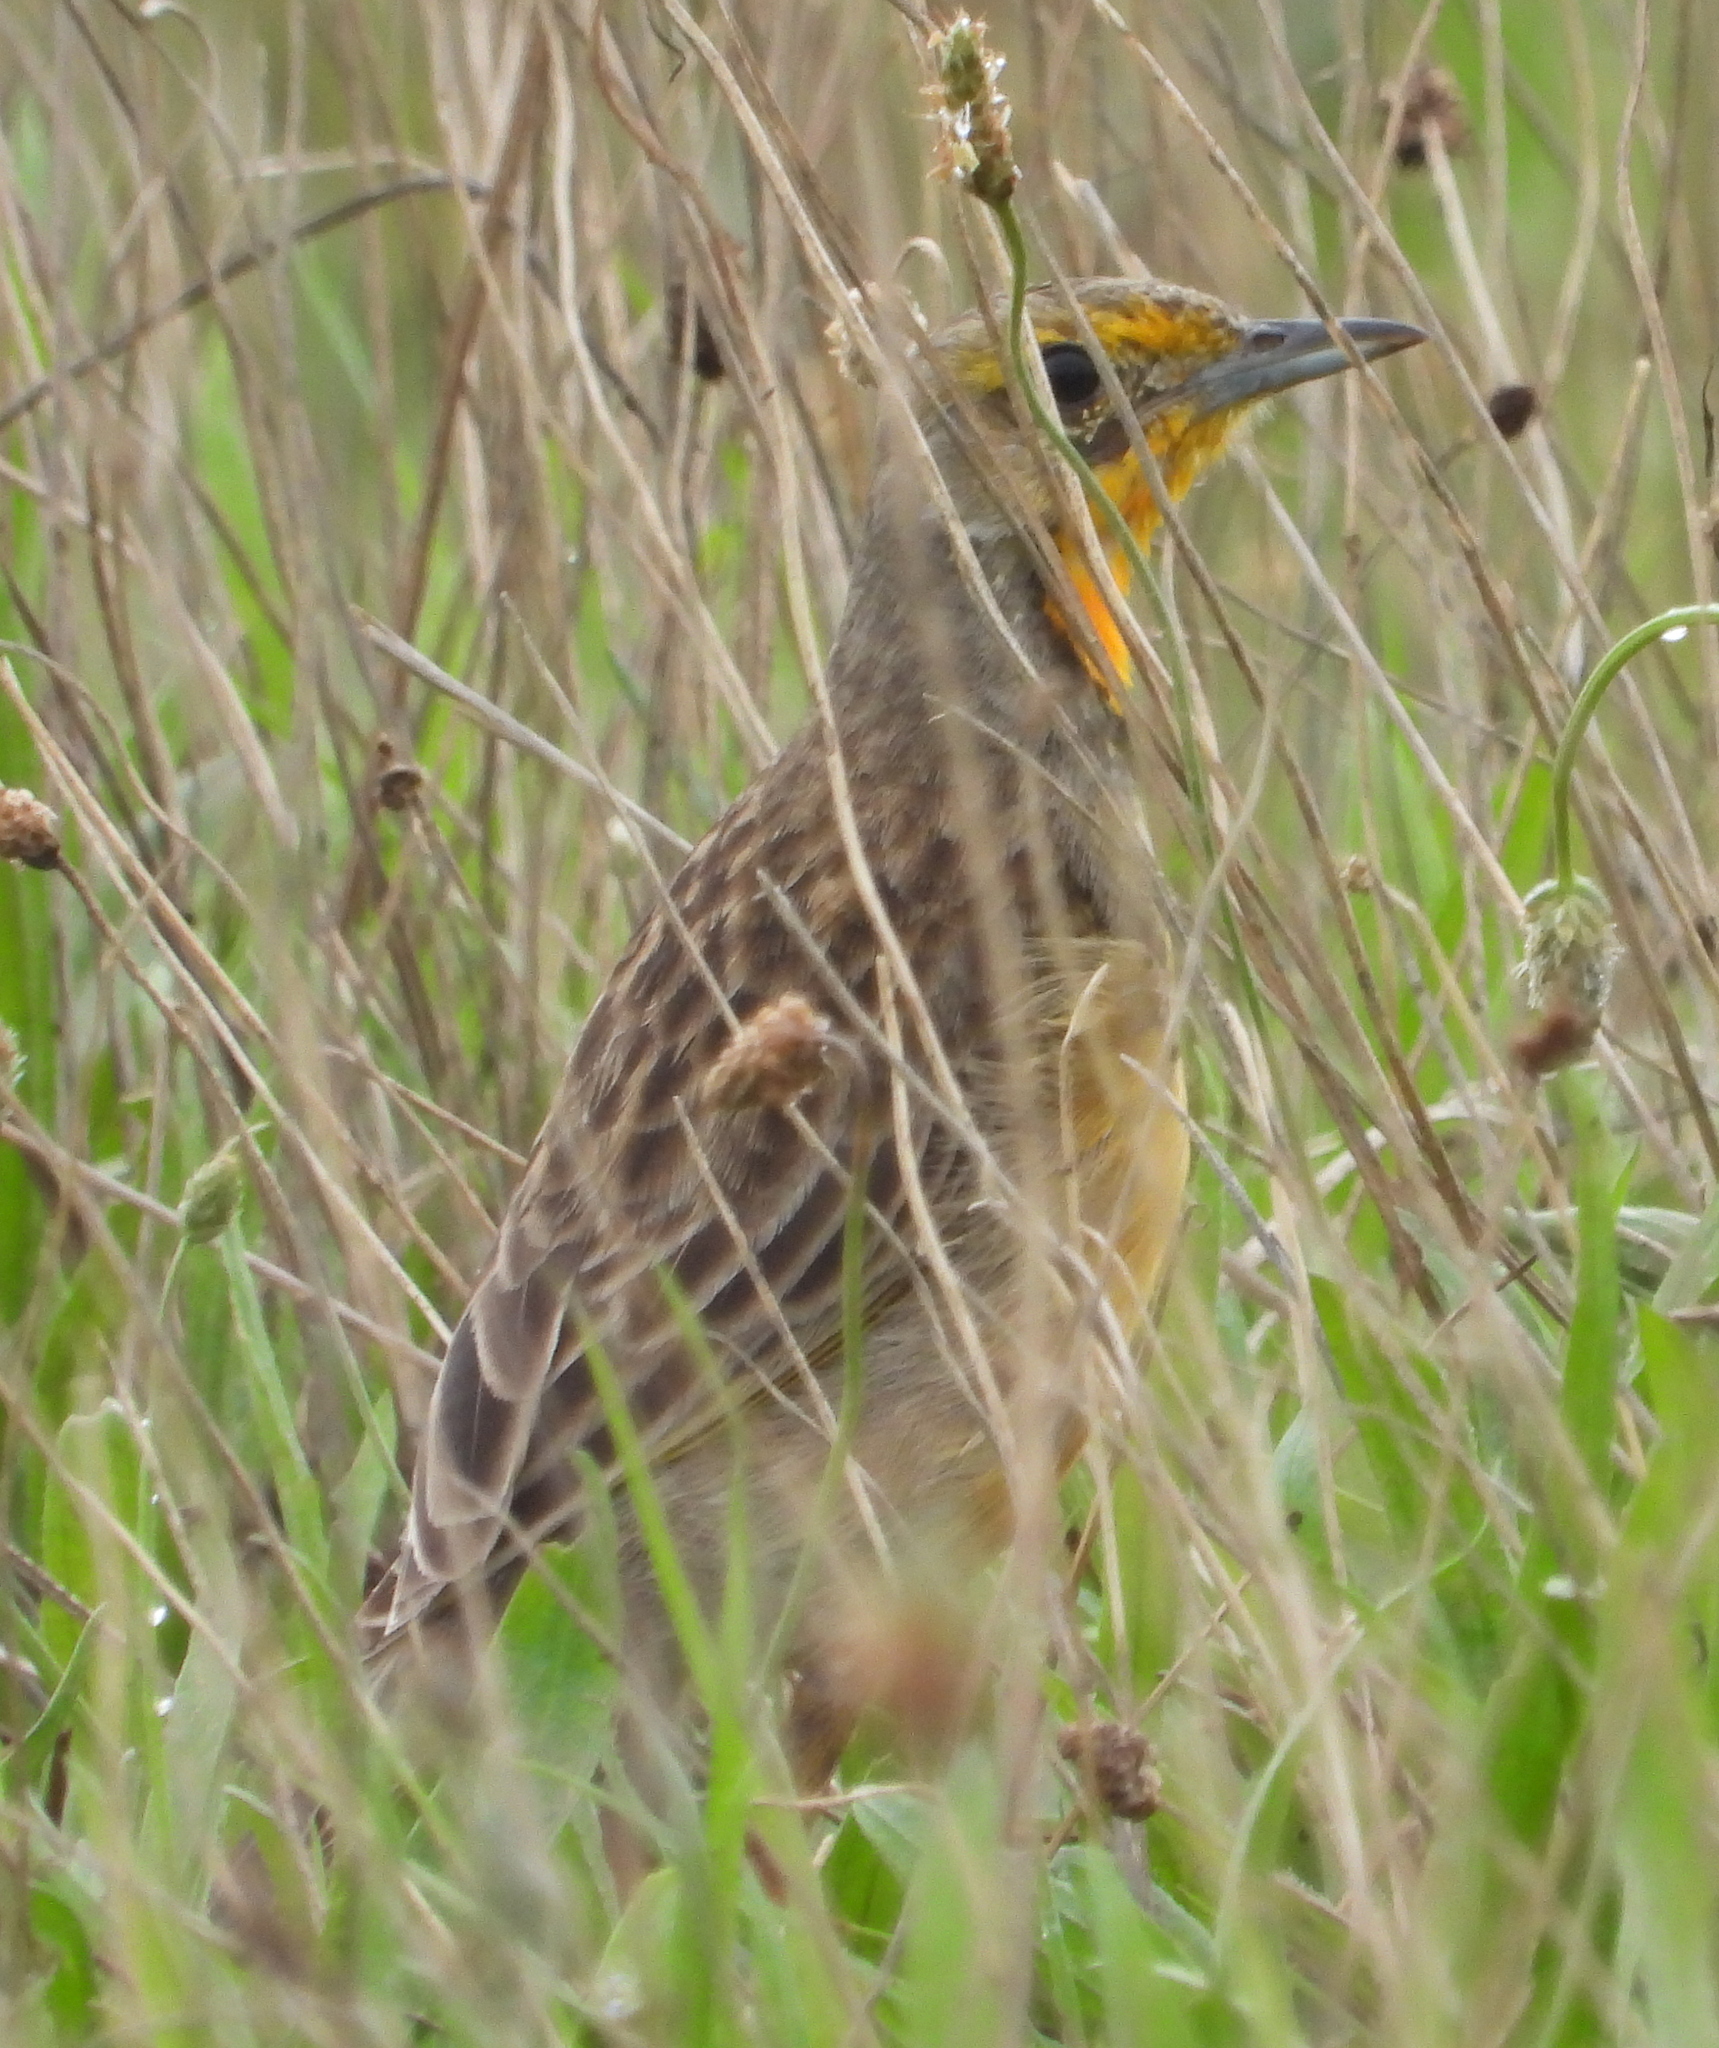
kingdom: Animalia
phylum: Chordata
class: Aves
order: Passeriformes
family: Motacillidae
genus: Macronyx
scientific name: Macronyx capensis
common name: Cape longclaw
